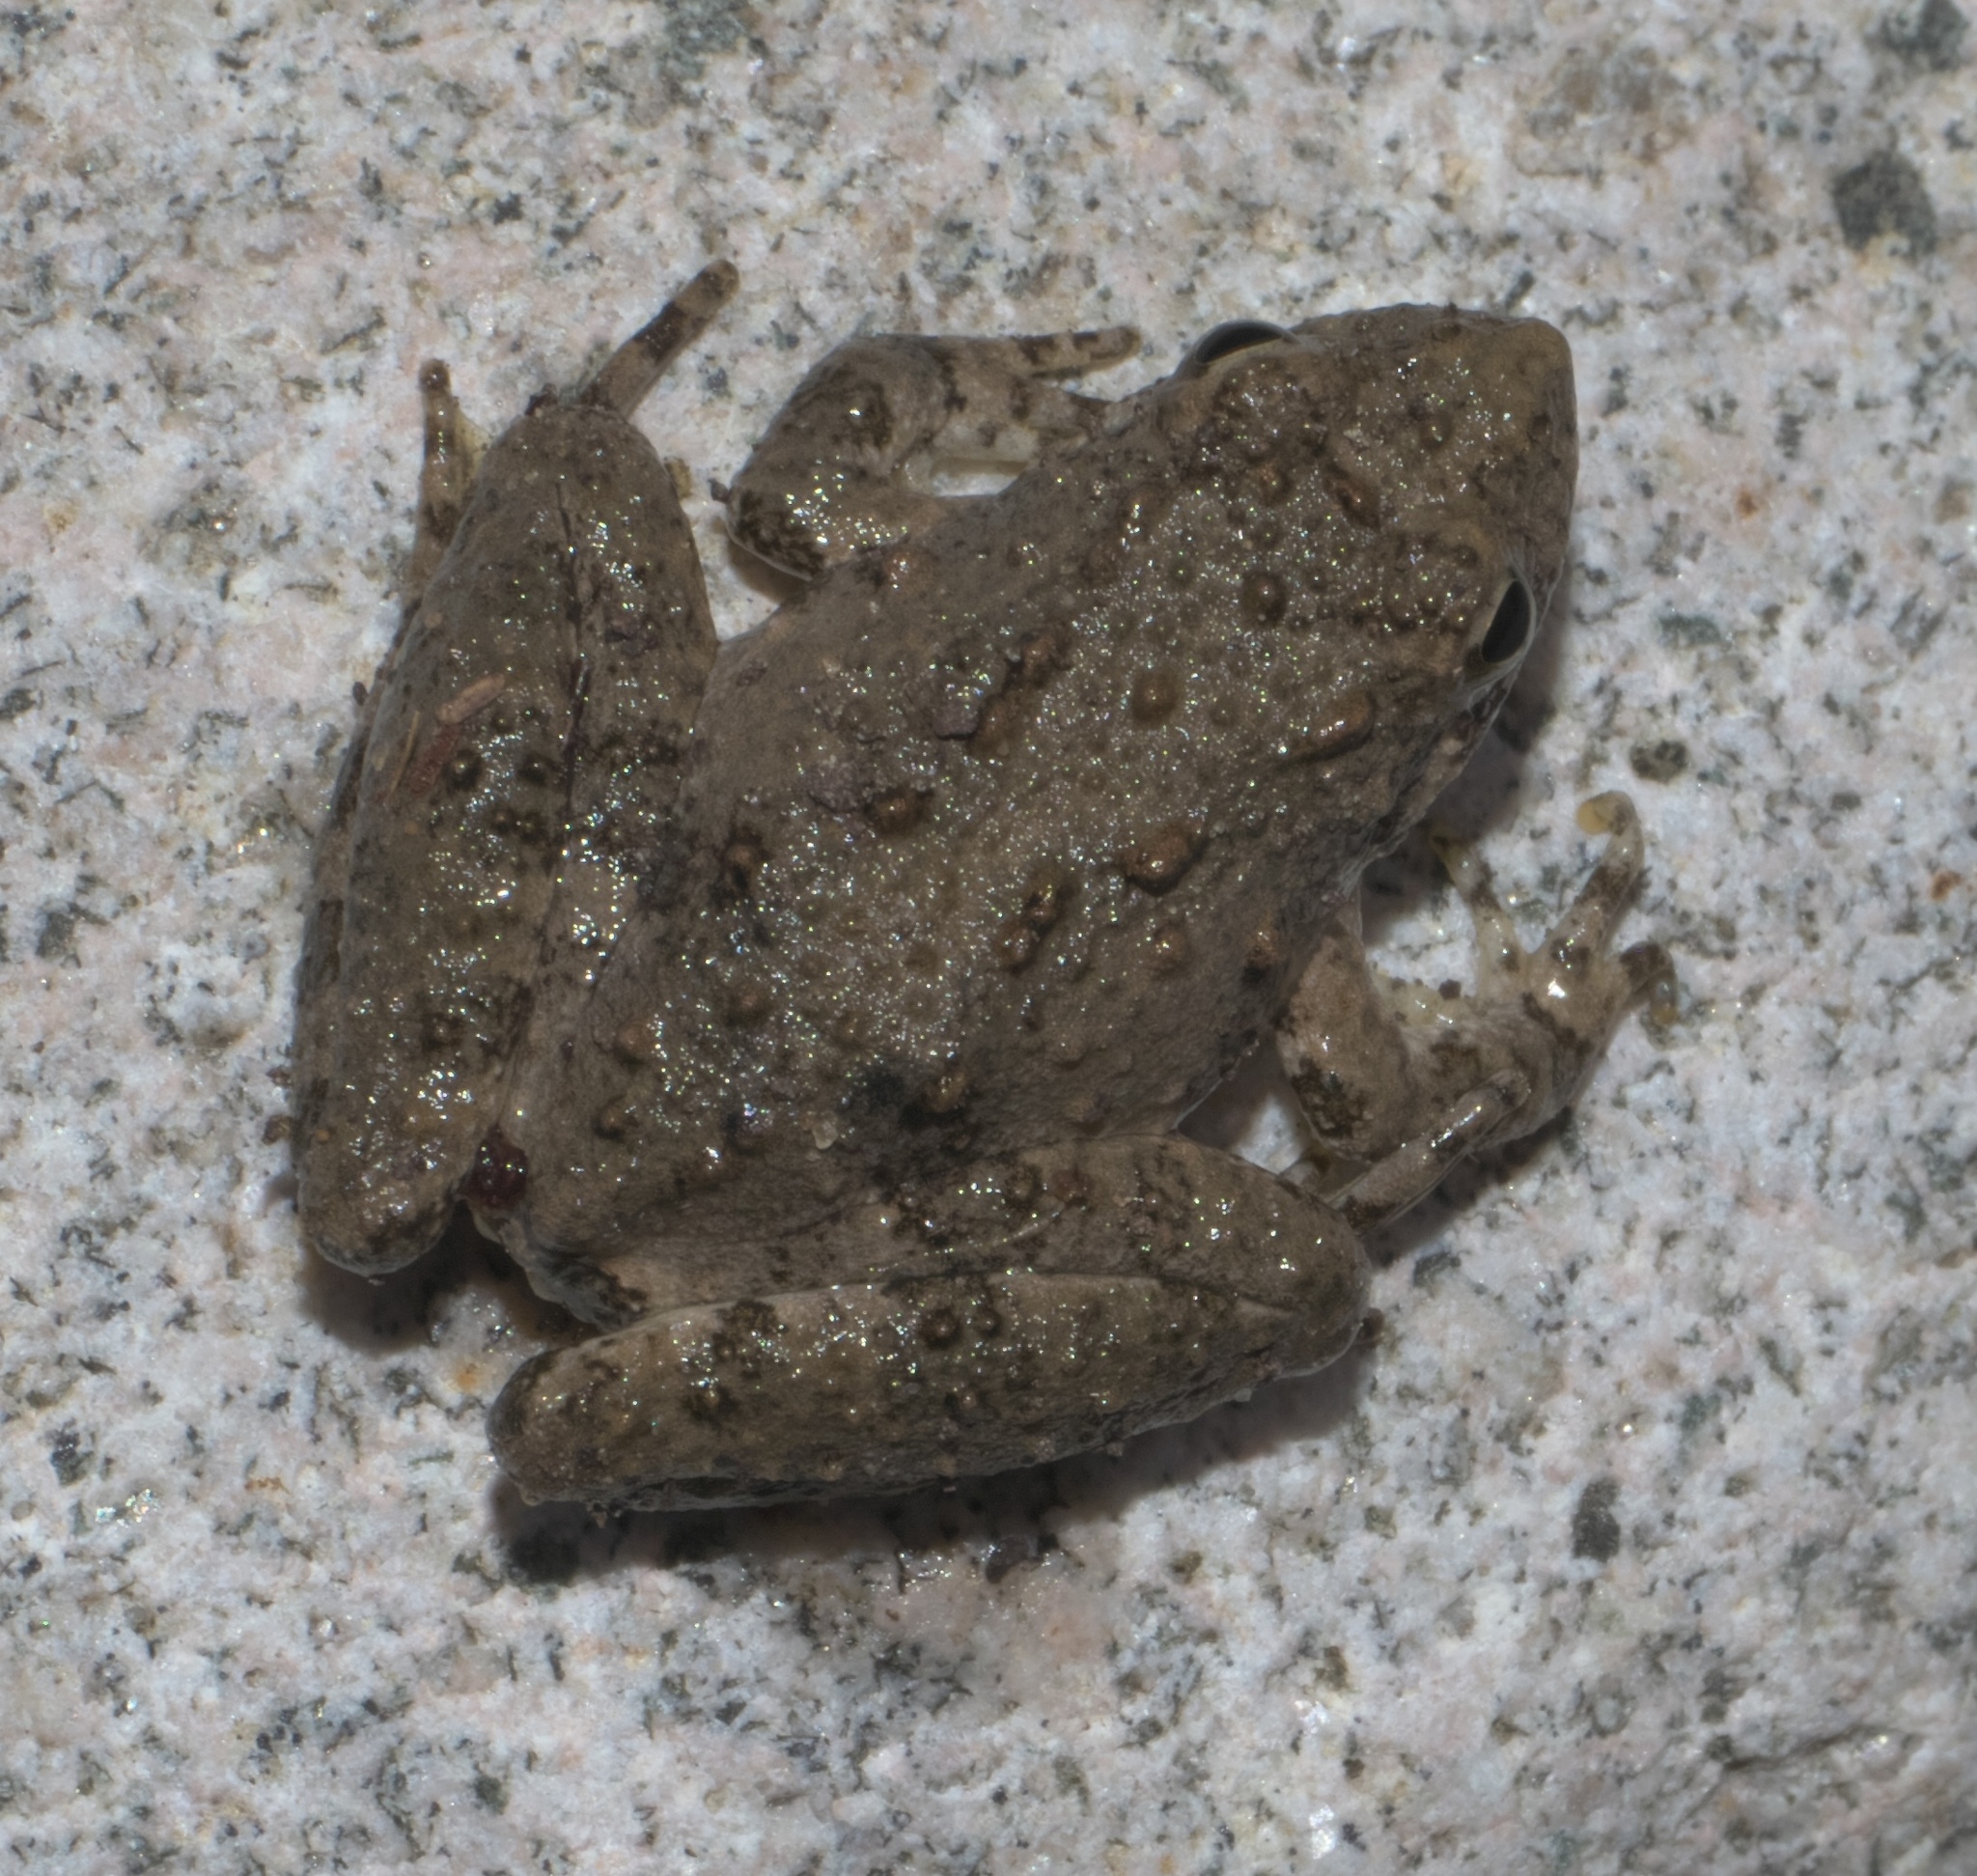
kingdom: Animalia
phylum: Chordata
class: Amphibia
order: Anura
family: Hylidae
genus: Acris
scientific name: Acris blanchardi
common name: Blanchard's cricket frog
